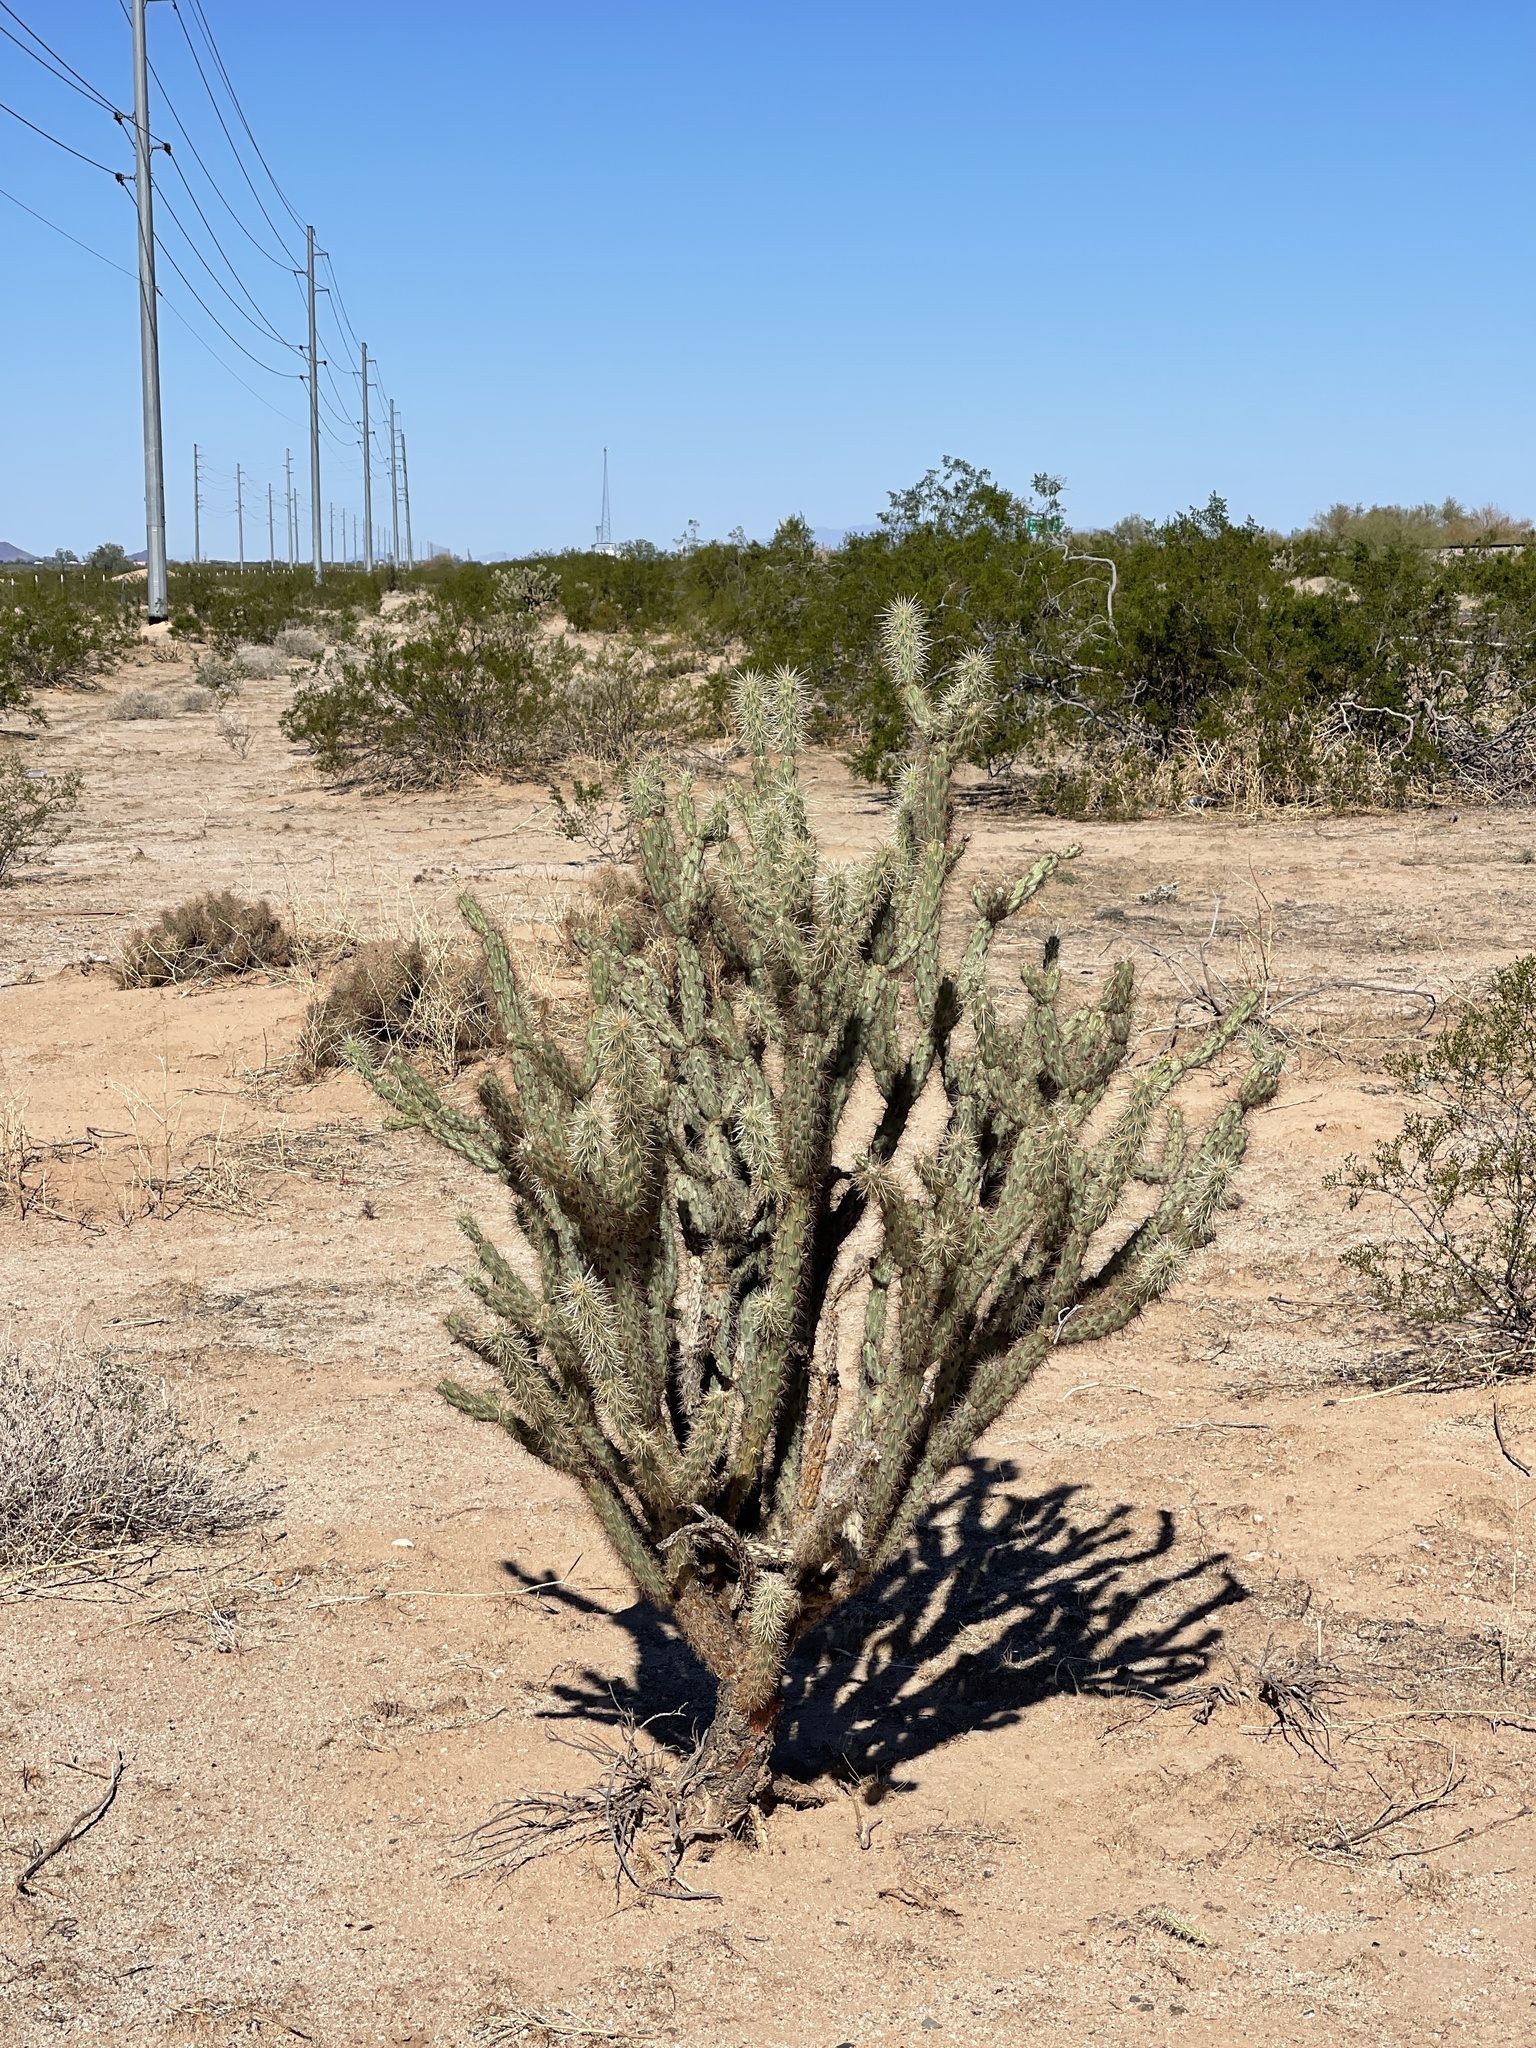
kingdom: Plantae
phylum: Tracheophyta
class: Magnoliopsida
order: Caryophyllales
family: Cactaceae
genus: Cylindropuntia
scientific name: Cylindropuntia acanthocarpa
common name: Buckhorn cholla
